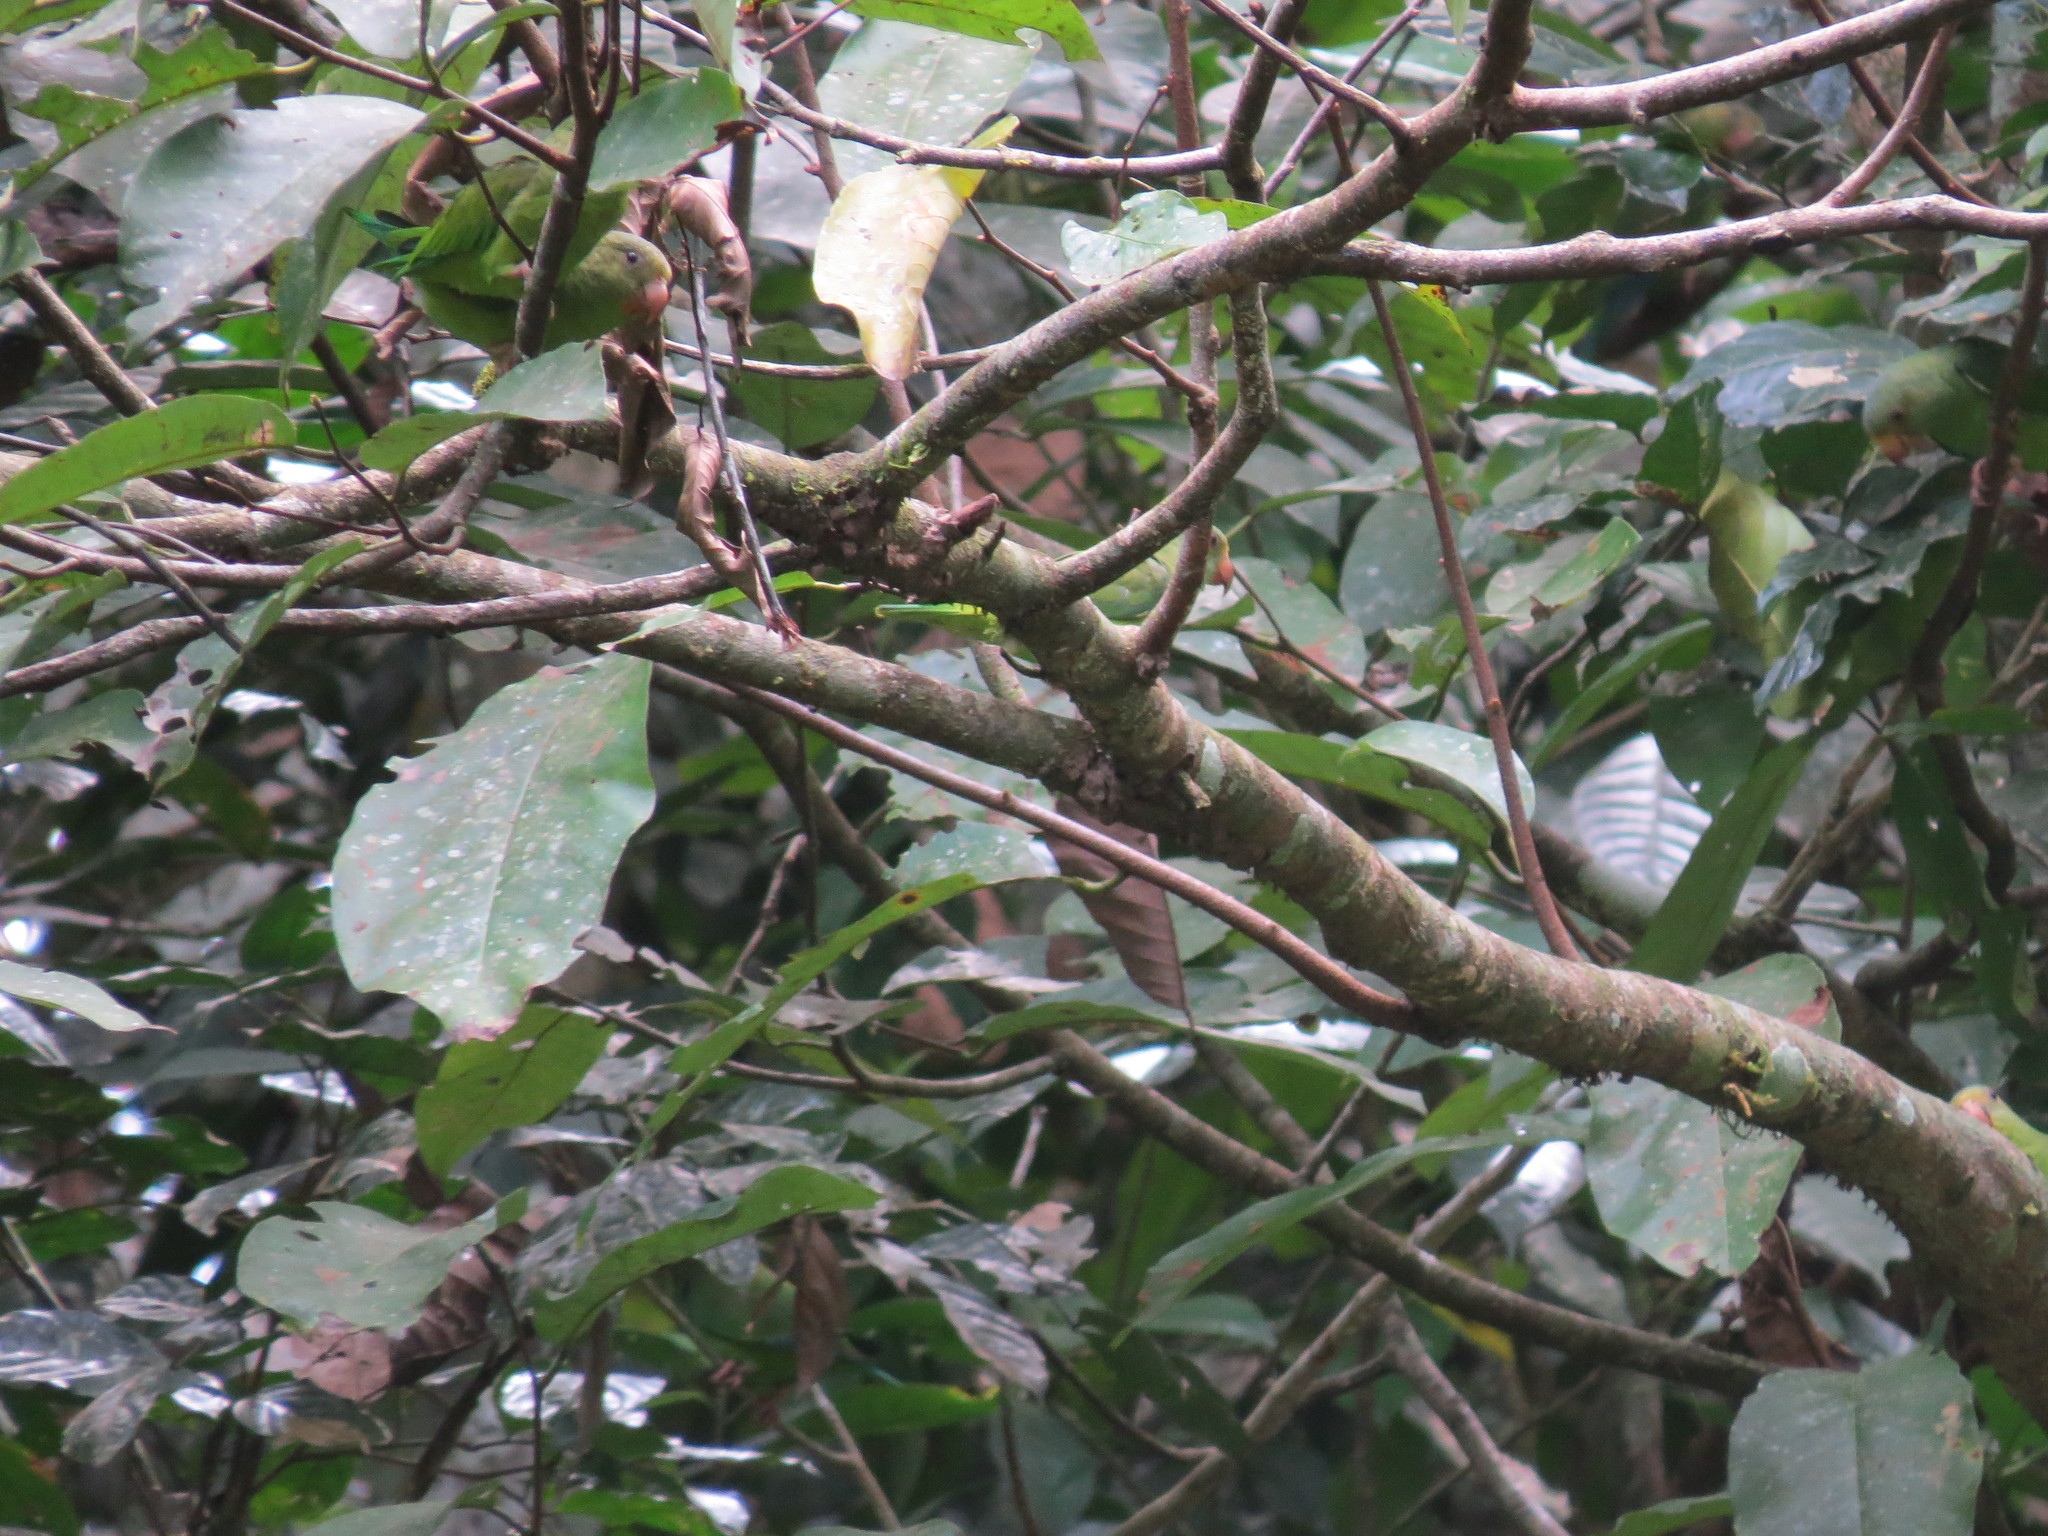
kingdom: Animalia
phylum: Chordata
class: Aves
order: Psittaciformes
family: Psittacidae
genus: Brotogeris
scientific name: Brotogeris cyanoptera
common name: Cobalt-winged parakeet
